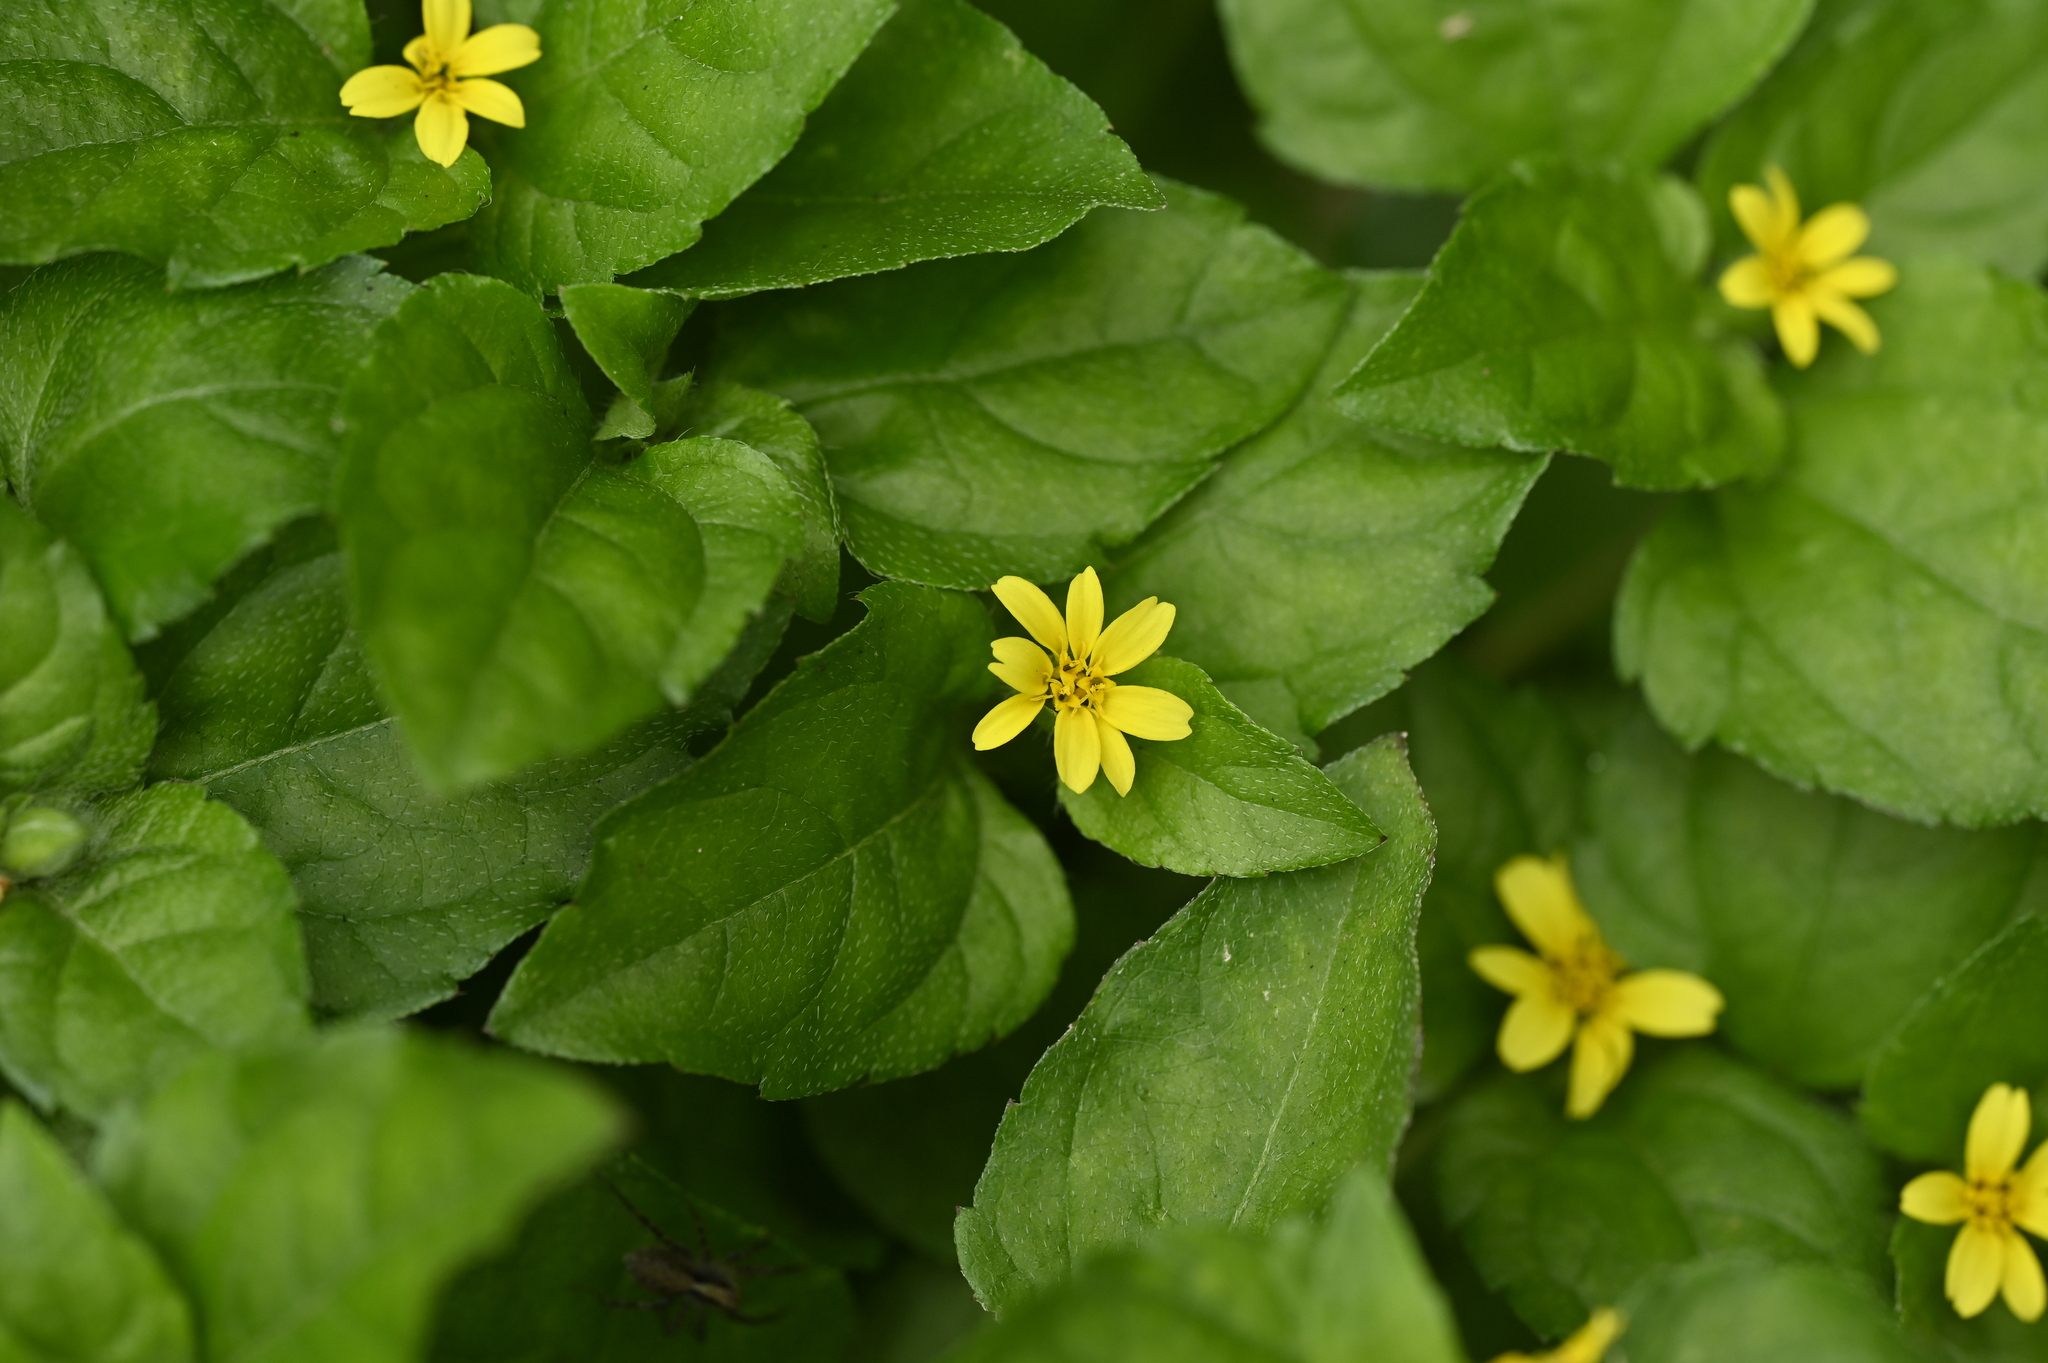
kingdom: Plantae
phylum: Tracheophyta
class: Magnoliopsida
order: Asterales
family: Asteraceae
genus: Calyptocarpus
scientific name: Calyptocarpus vialis
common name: Straggler daisy
